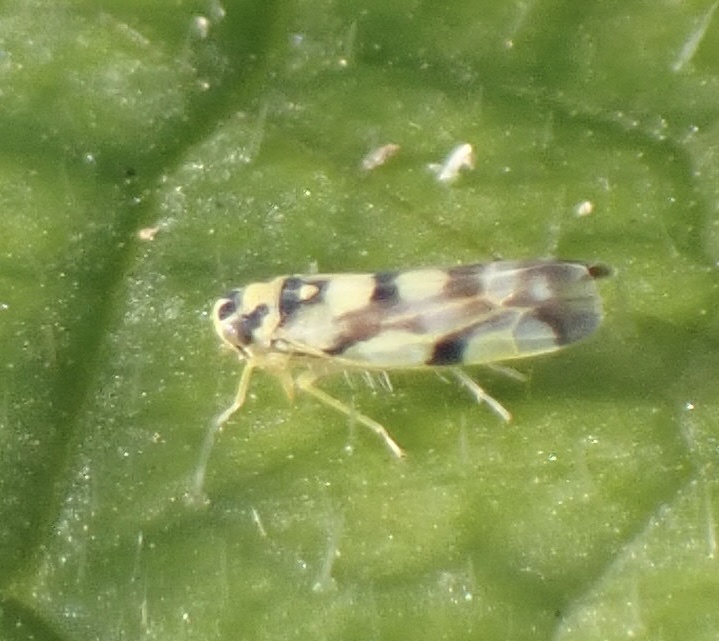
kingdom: Animalia
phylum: Arthropoda
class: Insecta
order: Hemiptera
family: Cicadellidae
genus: Eupteryx
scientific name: Eupteryx atropunctata
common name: Leafhopper
